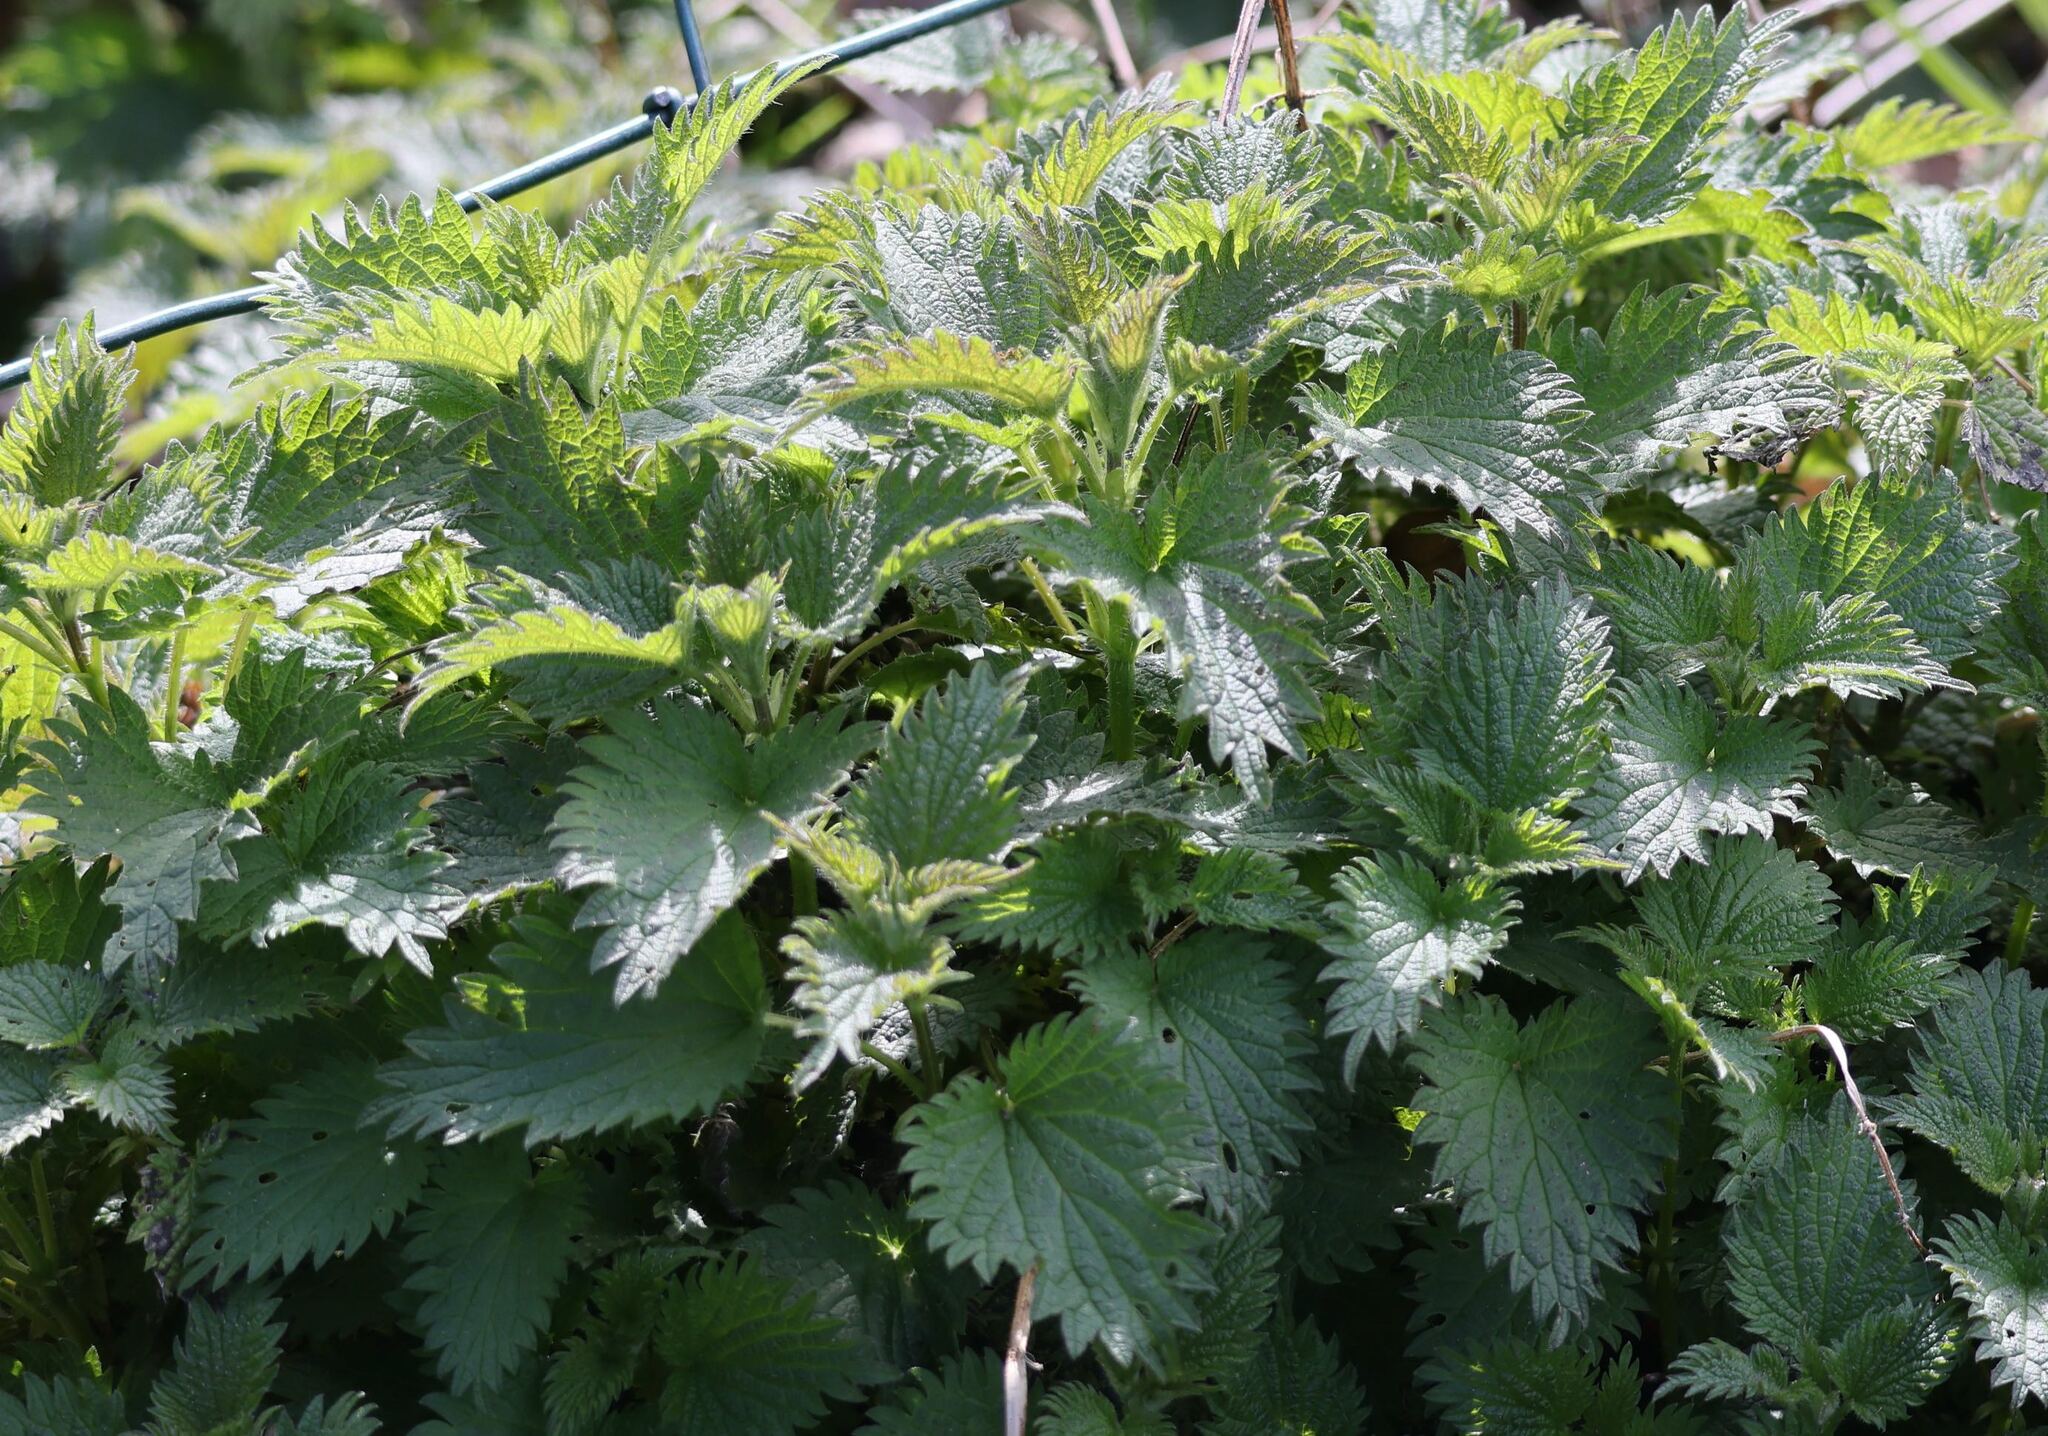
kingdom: Plantae
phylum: Tracheophyta
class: Magnoliopsida
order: Rosales
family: Urticaceae
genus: Urtica
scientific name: Urtica dioica
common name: Common nettle
